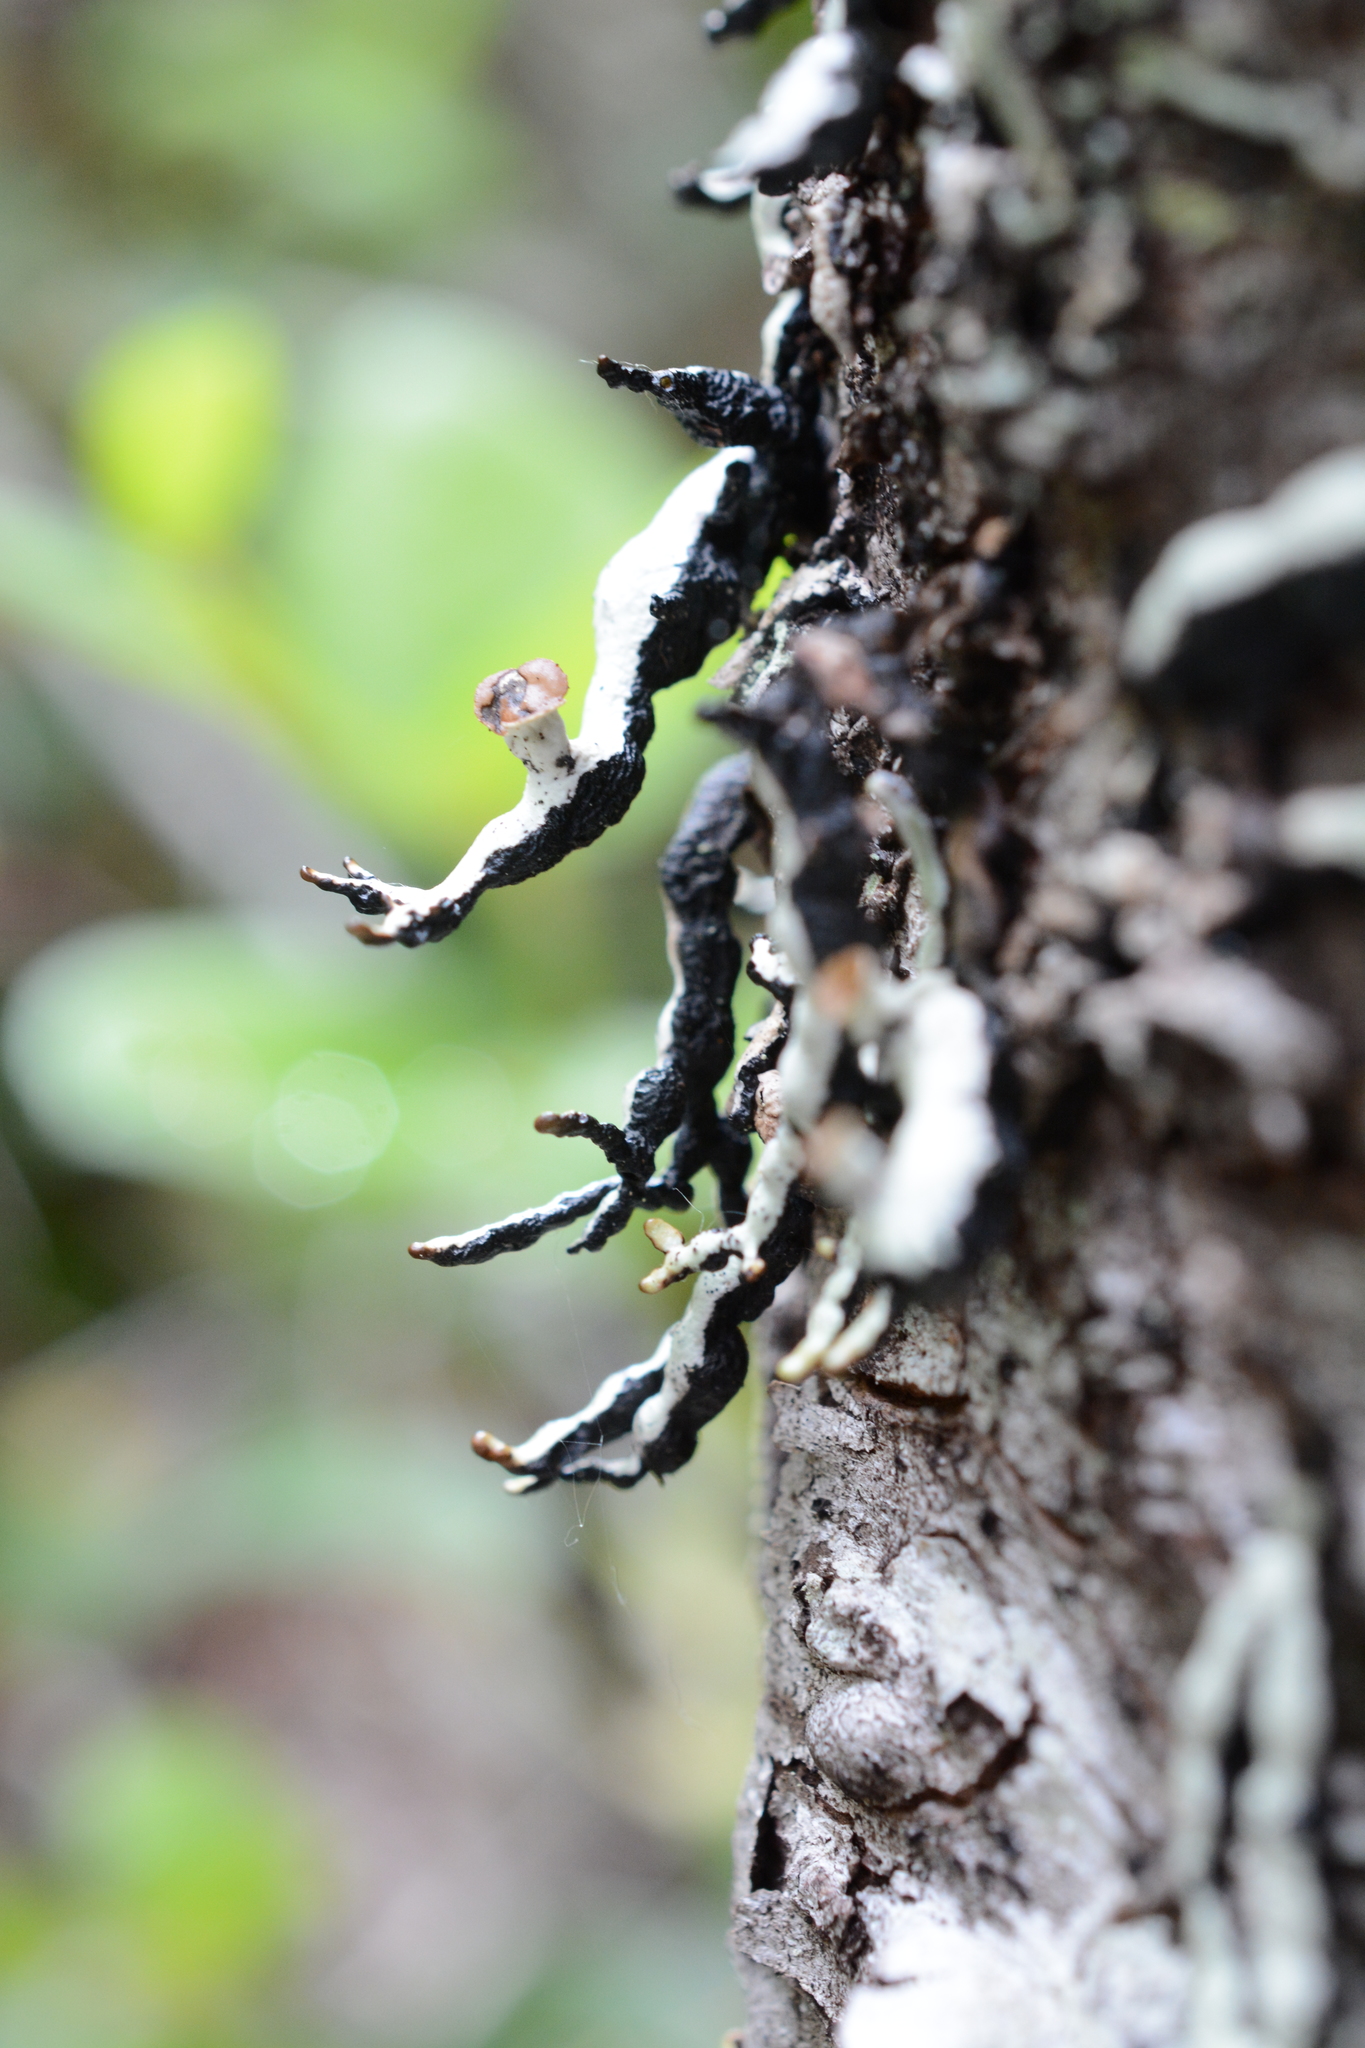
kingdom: Fungi
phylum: Ascomycota
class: Lecanoromycetes
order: Lecanorales
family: Parmeliaceae
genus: Hypogymnia
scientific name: Hypogymnia enteromorpha
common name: Beaded tube lichen
